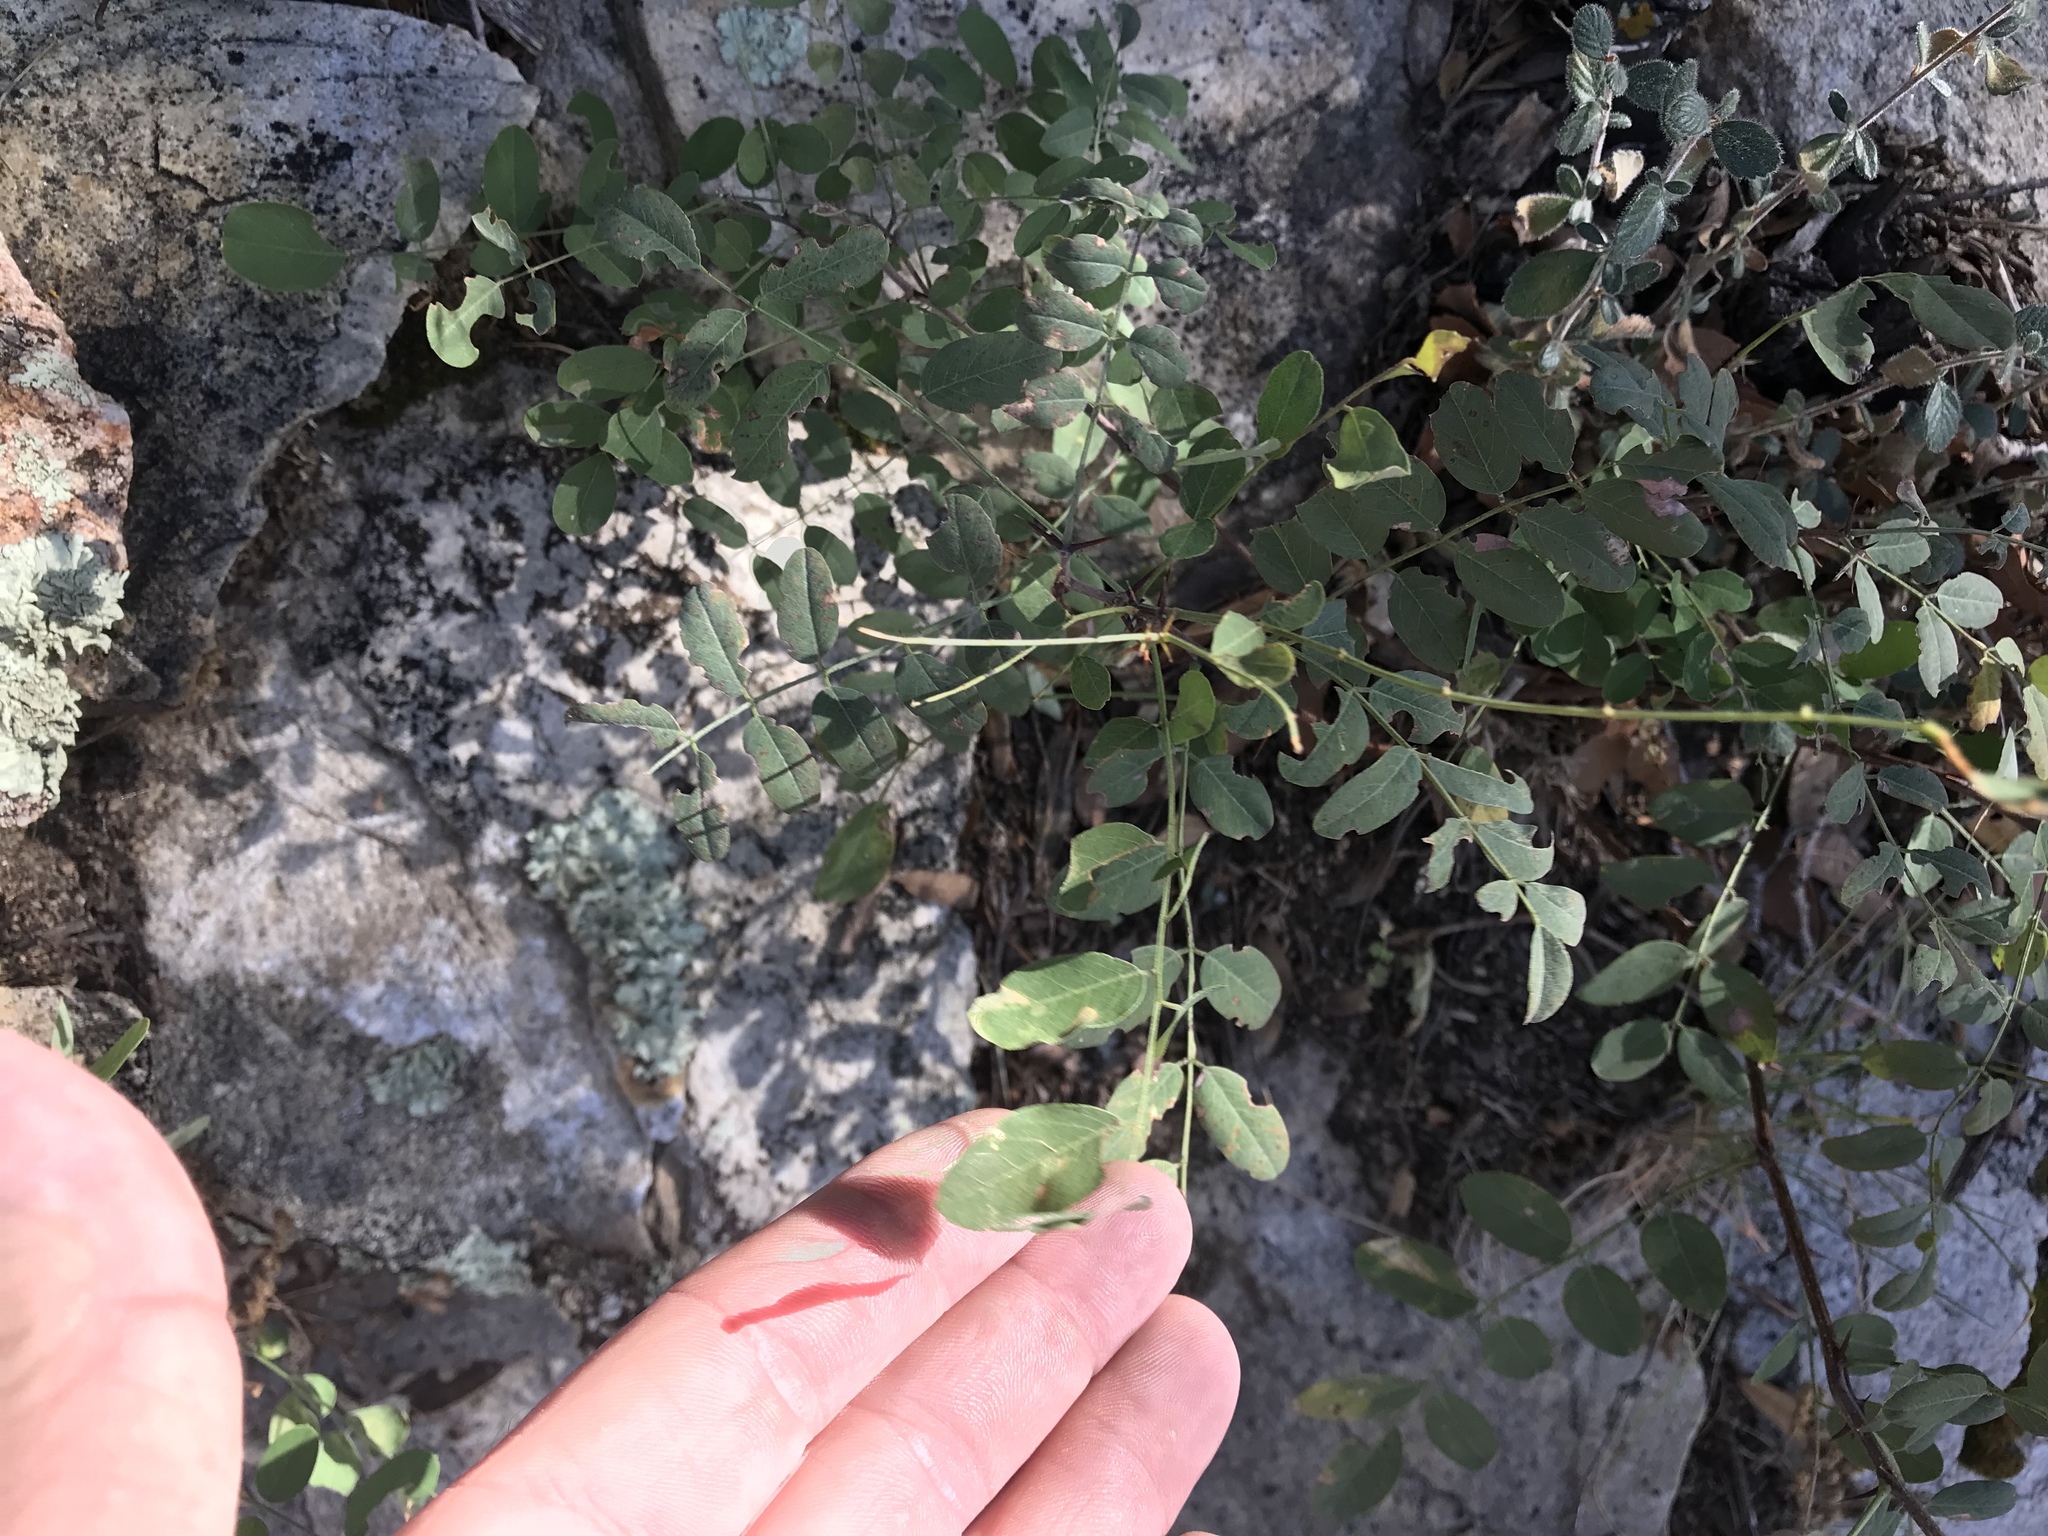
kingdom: Plantae
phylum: Tracheophyta
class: Magnoliopsida
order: Fabales
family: Fabaceae
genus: Robinia
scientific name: Robinia neomexicana
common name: New mexico locust
